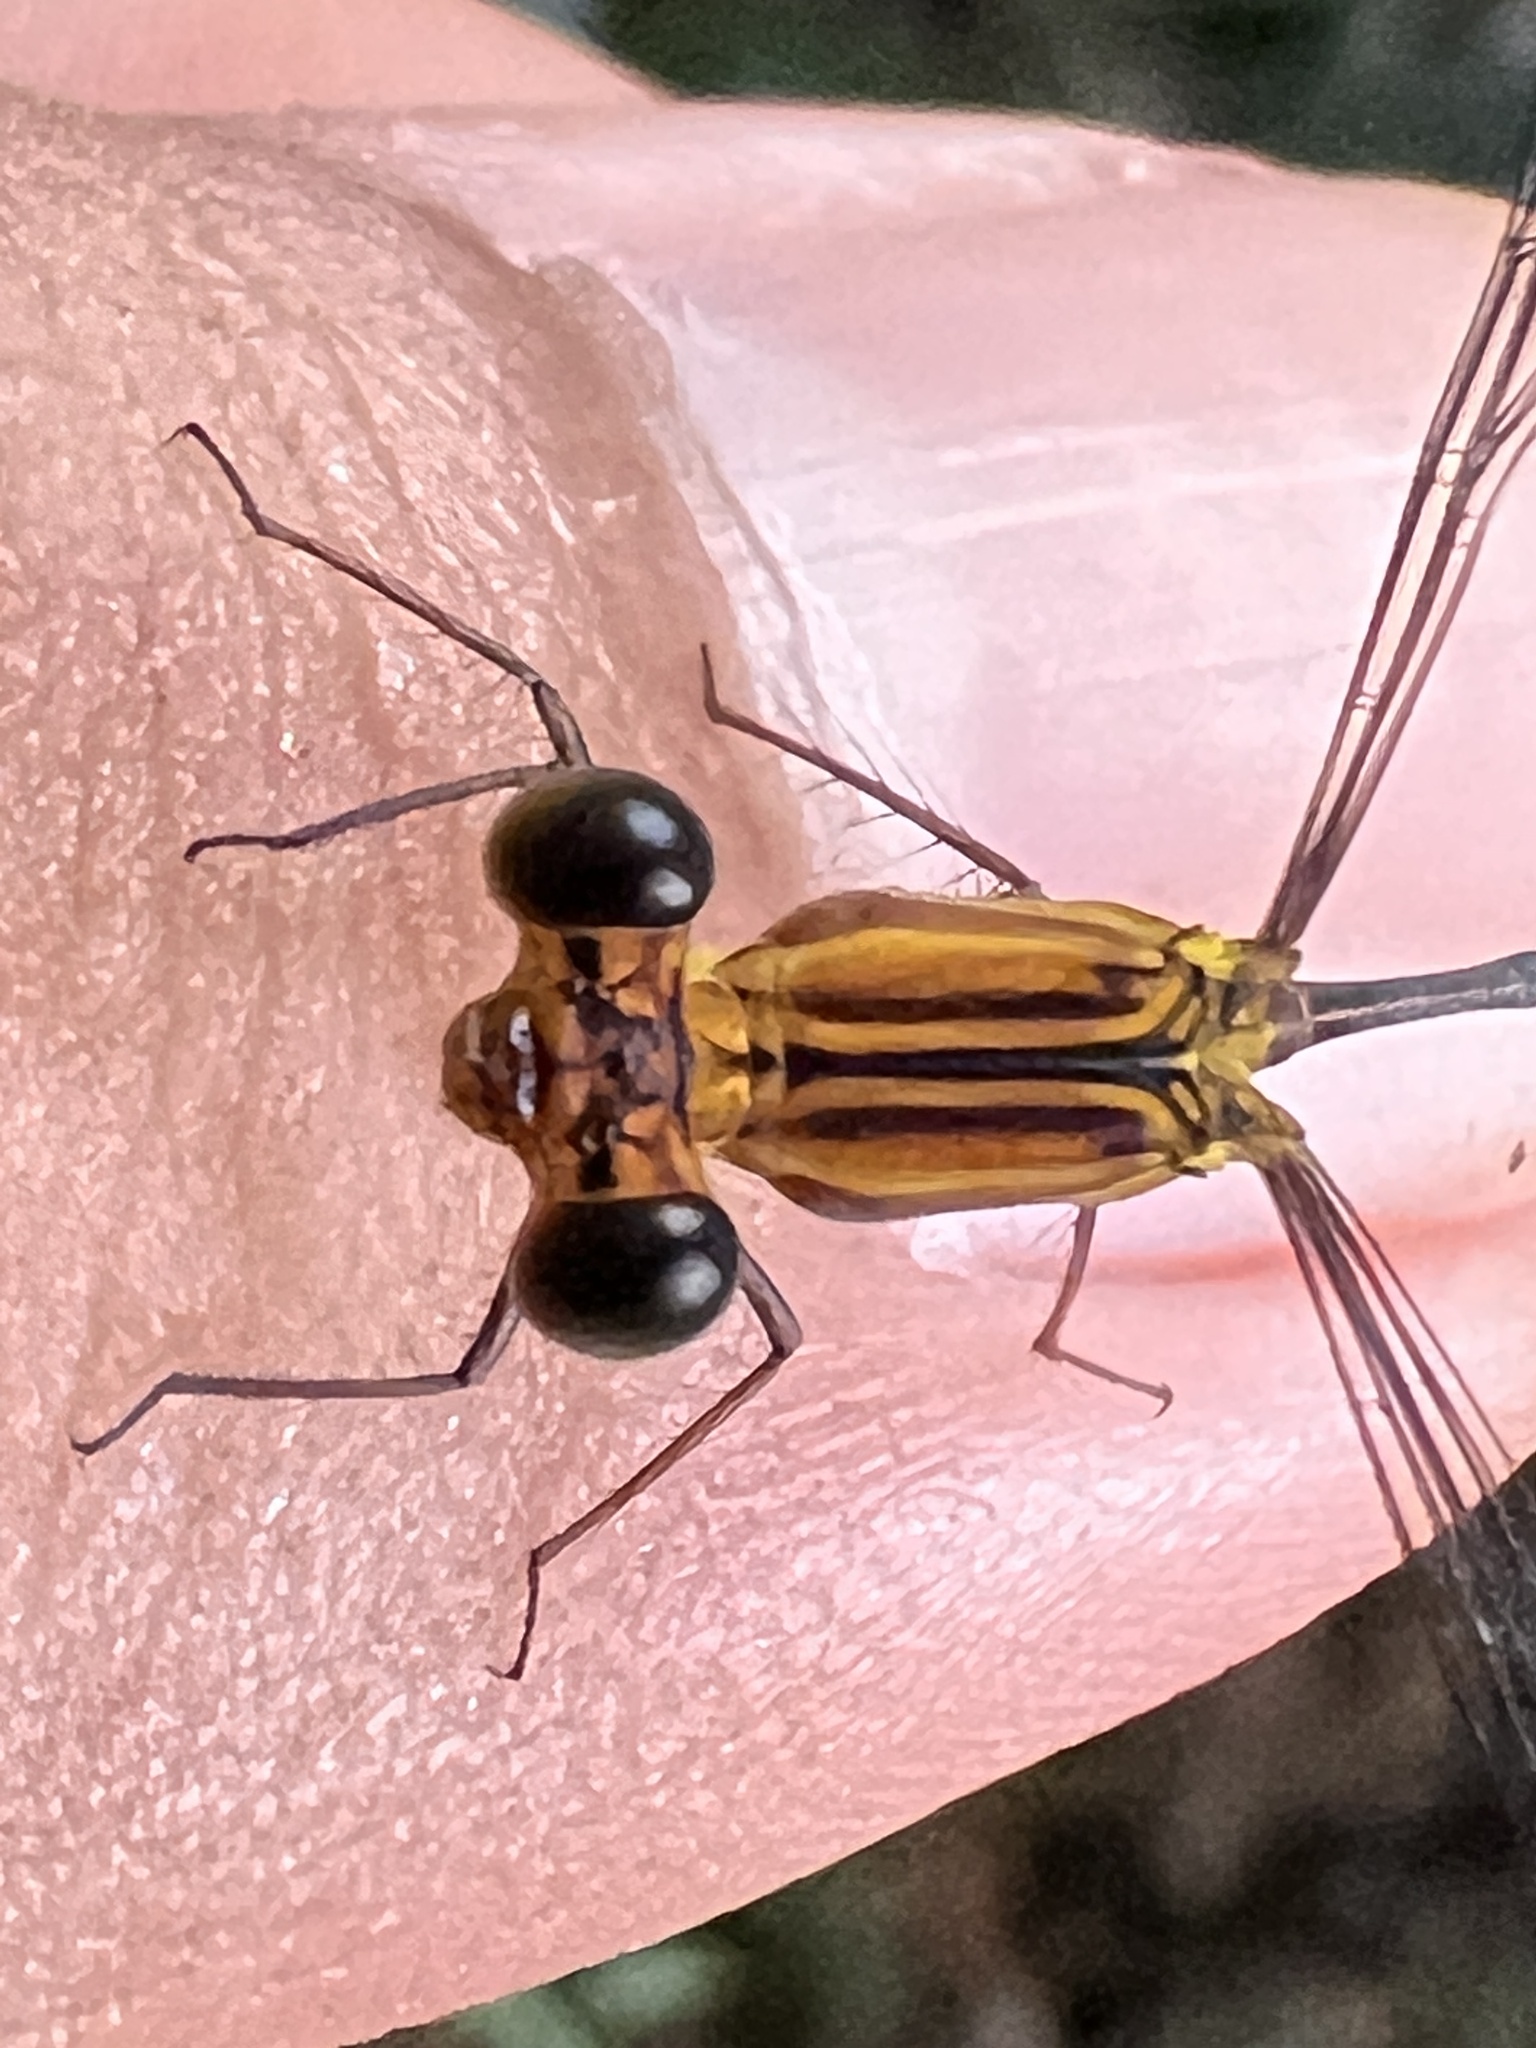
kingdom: Animalia
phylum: Arthropoda
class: Insecta
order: Odonata
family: Heteragrionidae
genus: Heteragrion
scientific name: Heteragrion aurantiacum
